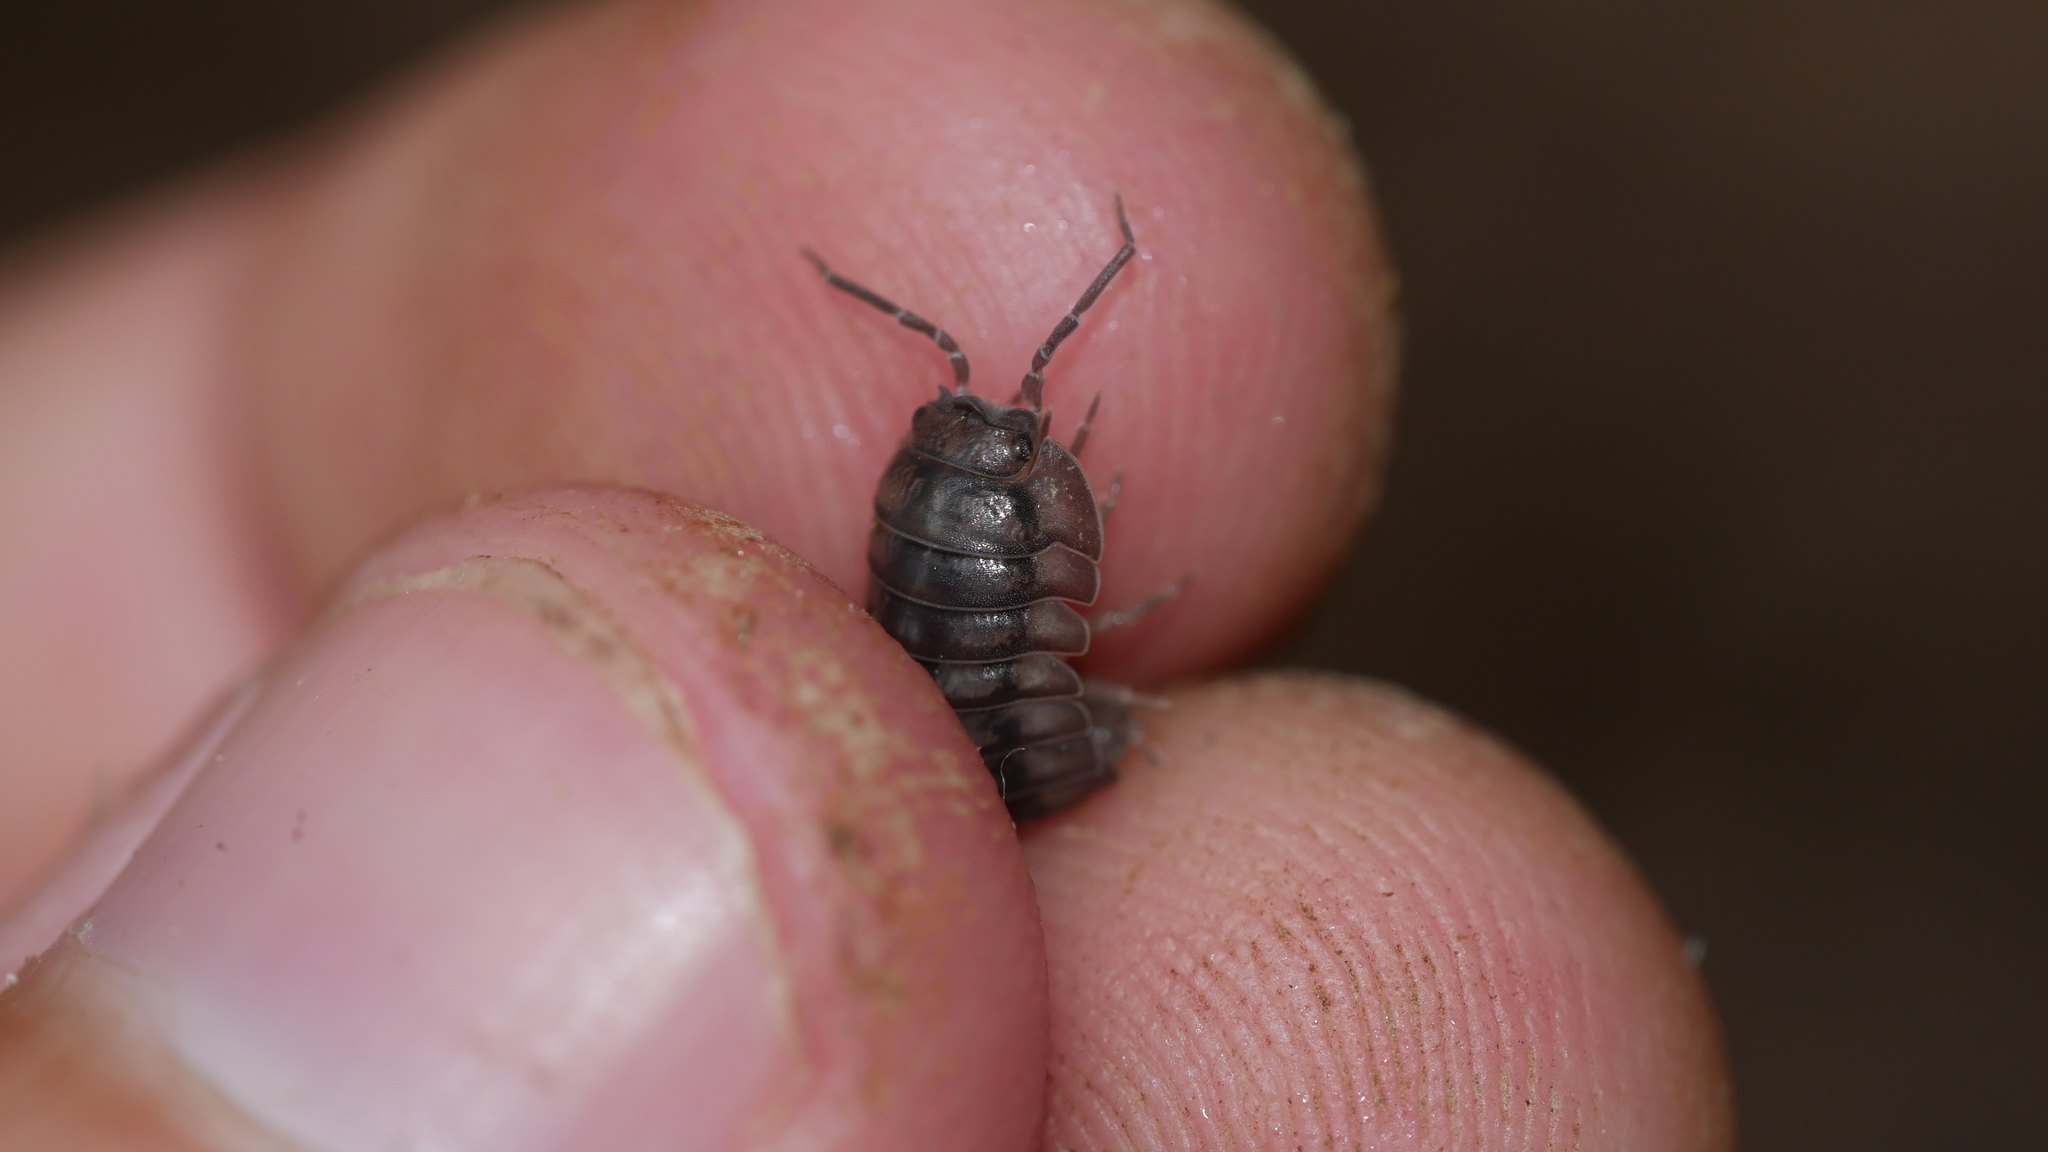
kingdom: Animalia
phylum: Arthropoda
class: Malacostraca
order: Isopoda
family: Armadillidiidae
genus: Armadillidium
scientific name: Armadillidium nasatum
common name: Isopod
